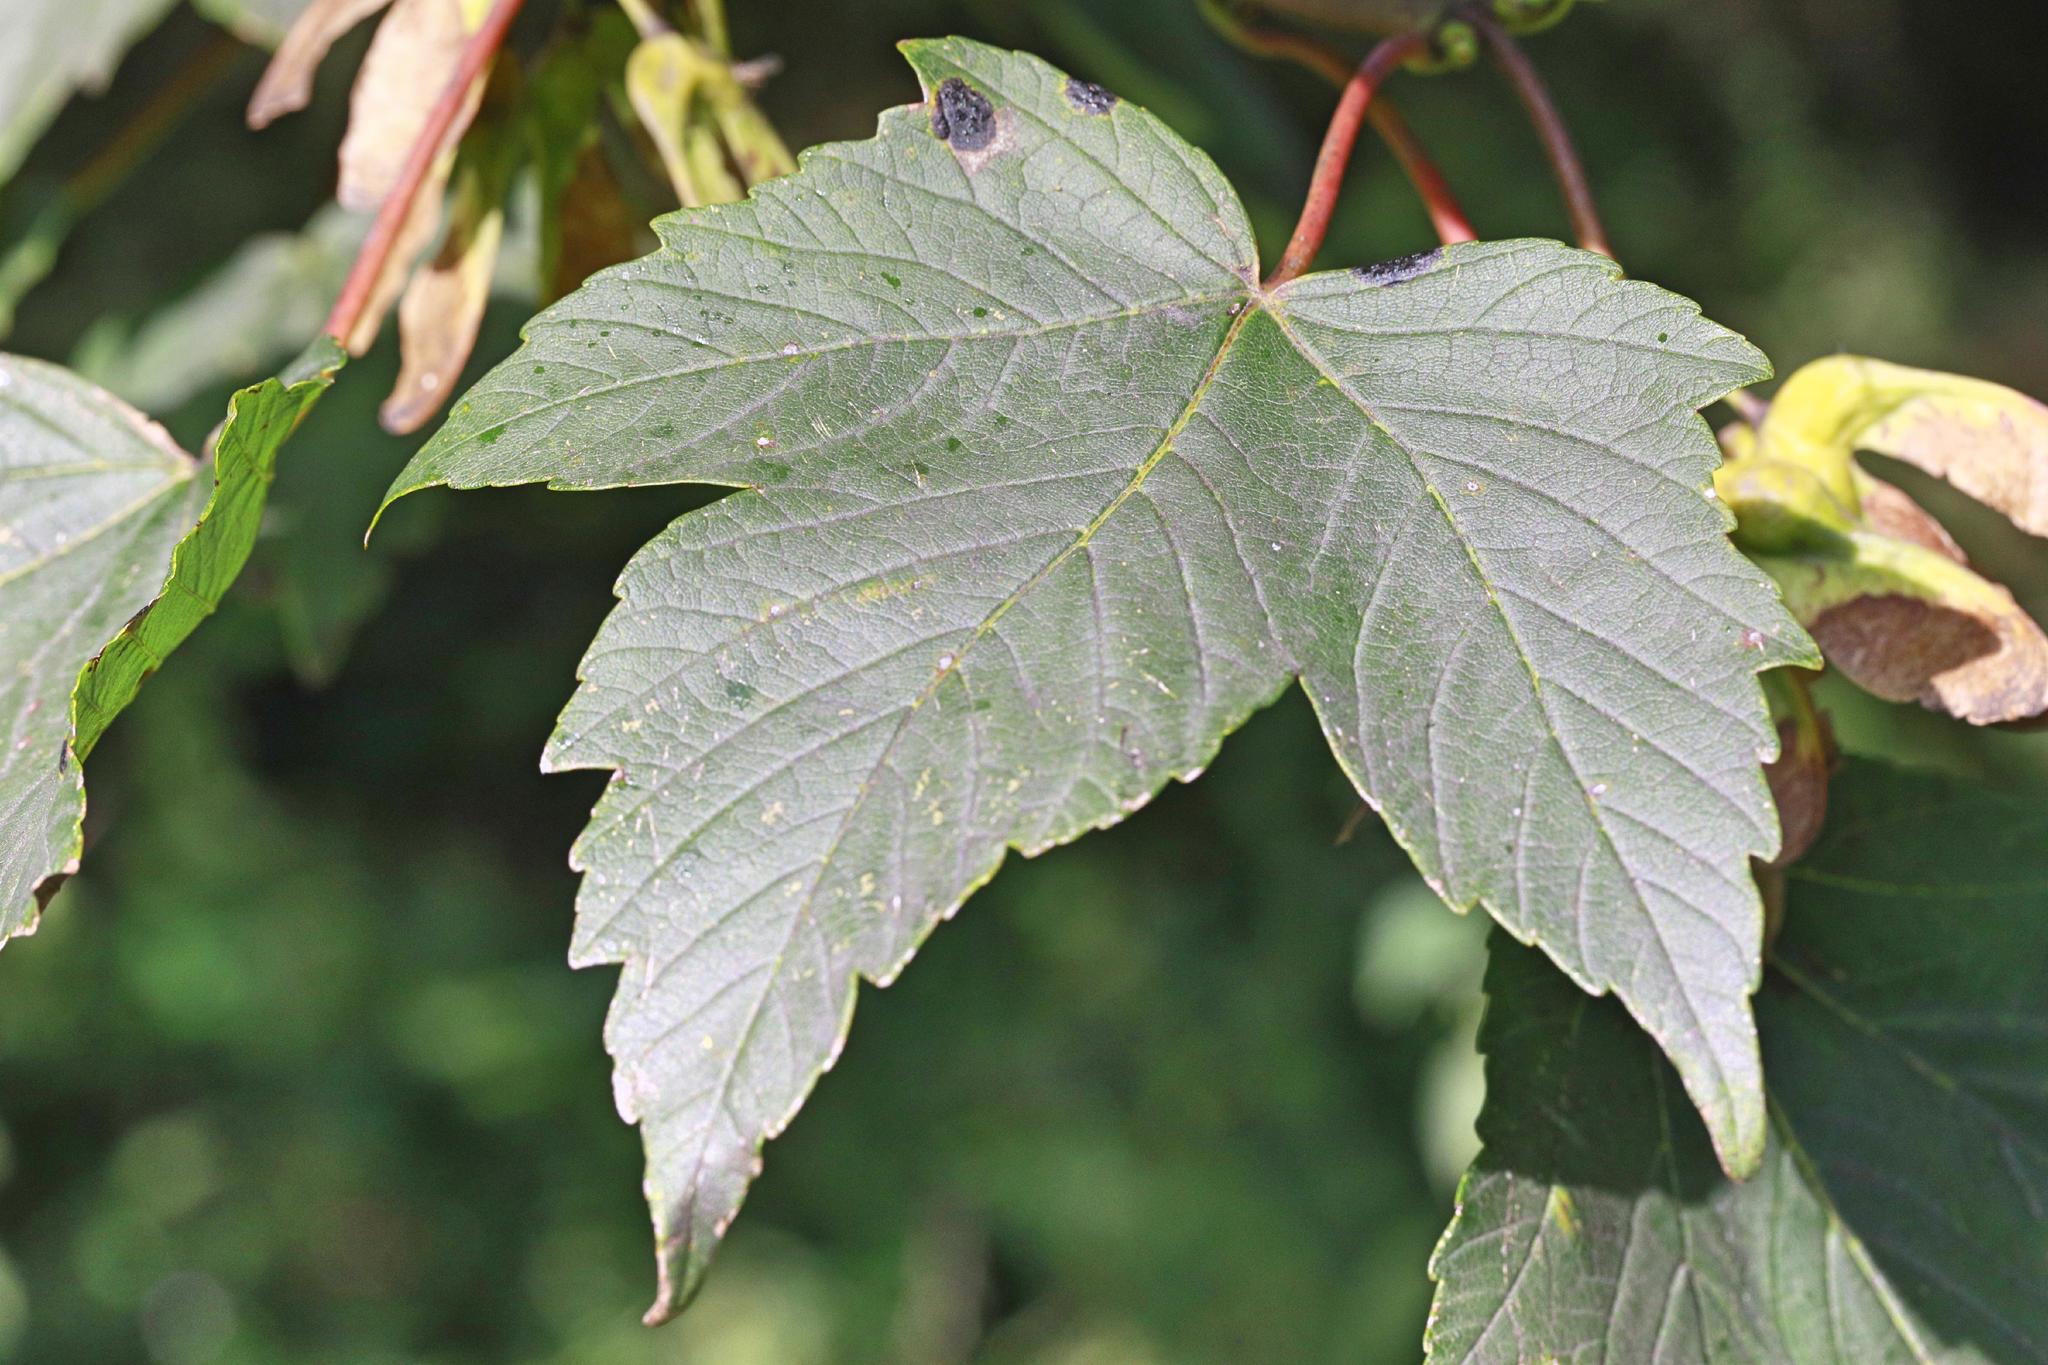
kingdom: Plantae
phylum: Tracheophyta
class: Magnoliopsida
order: Sapindales
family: Sapindaceae
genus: Acer
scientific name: Acer pseudoplatanus
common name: Sycamore
